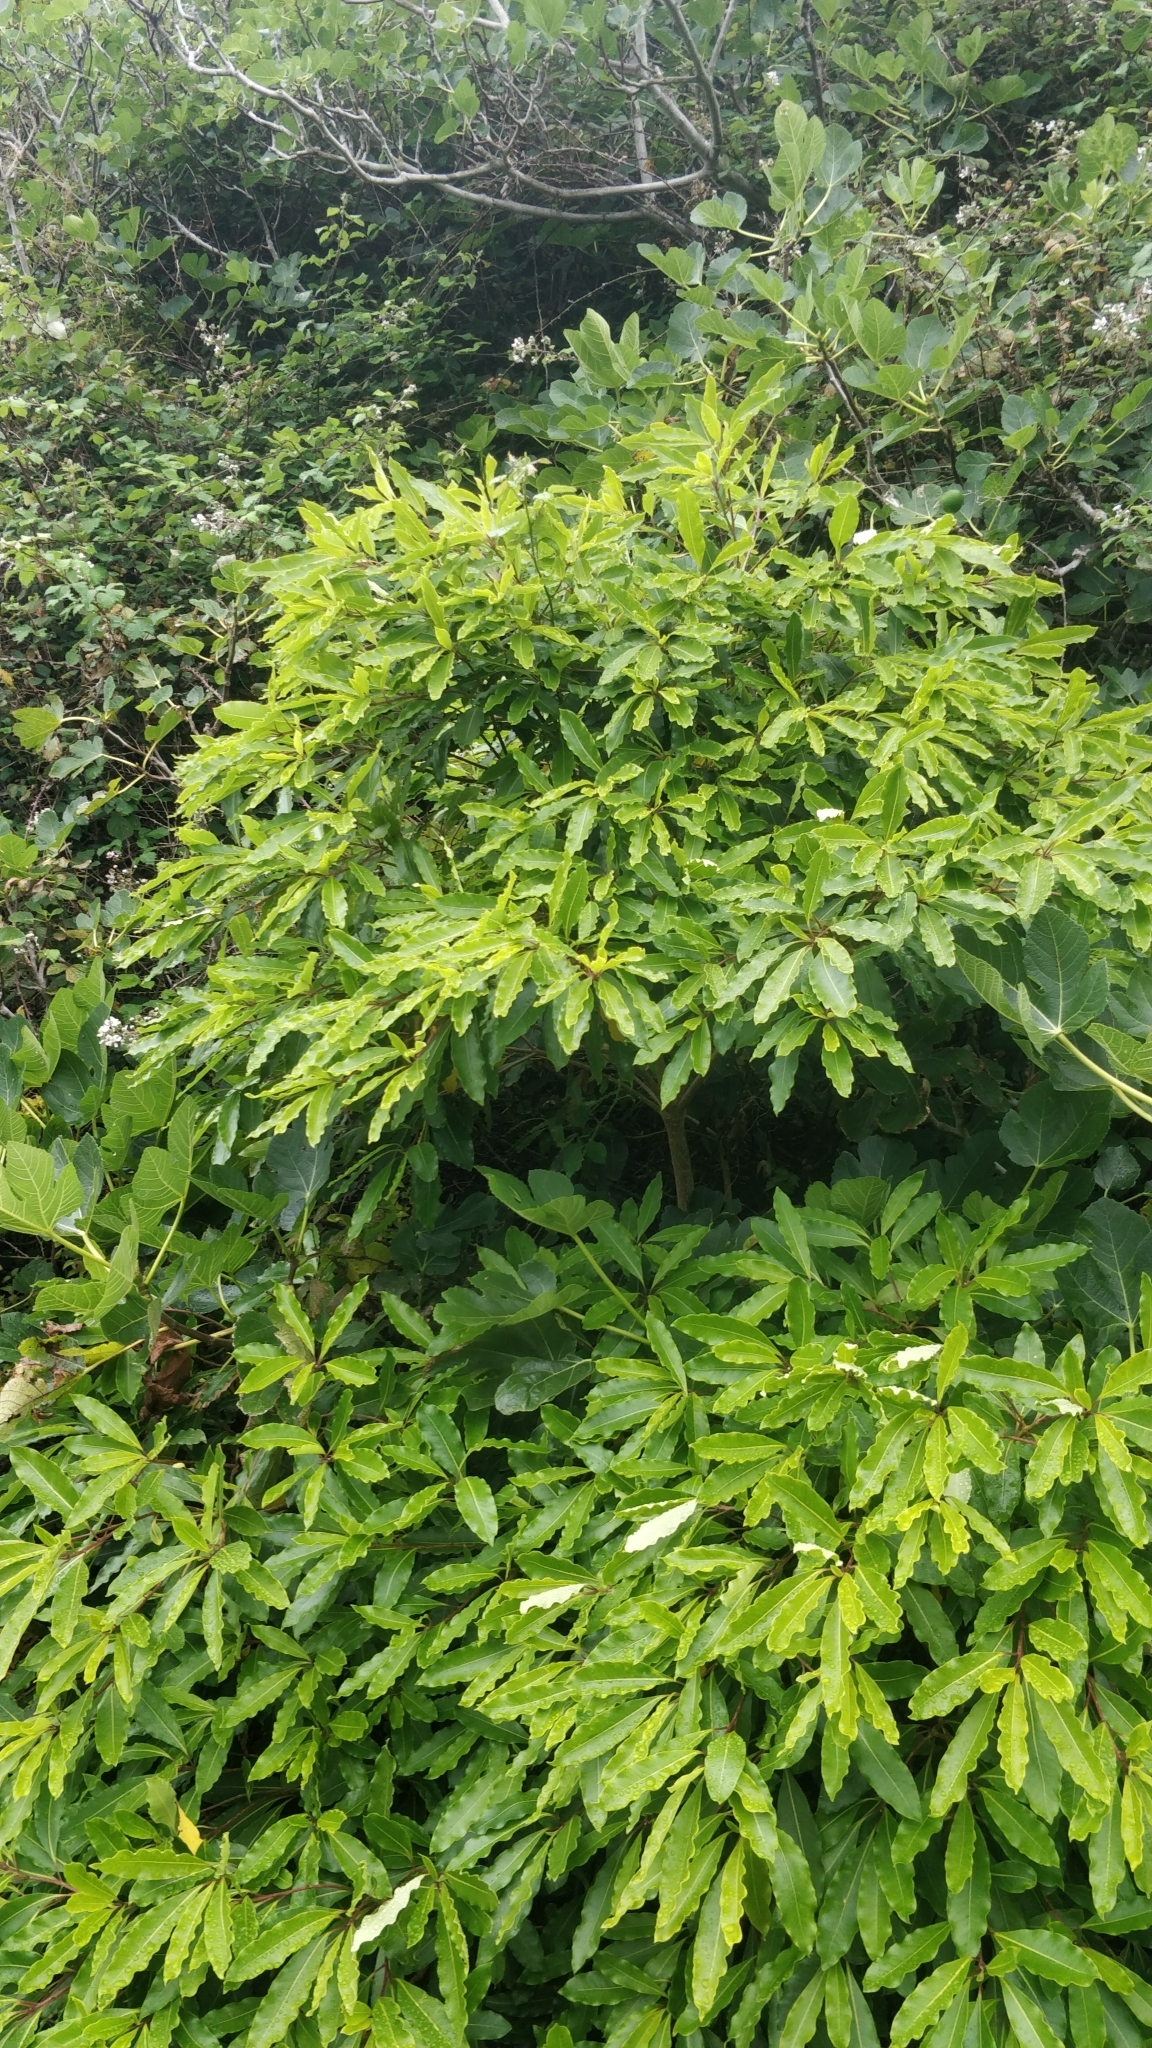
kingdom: Plantae
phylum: Tracheophyta
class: Magnoliopsida
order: Apiales
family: Pittosporaceae
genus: Pittosporum
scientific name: Pittosporum undulatum
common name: Australian cheesewood
